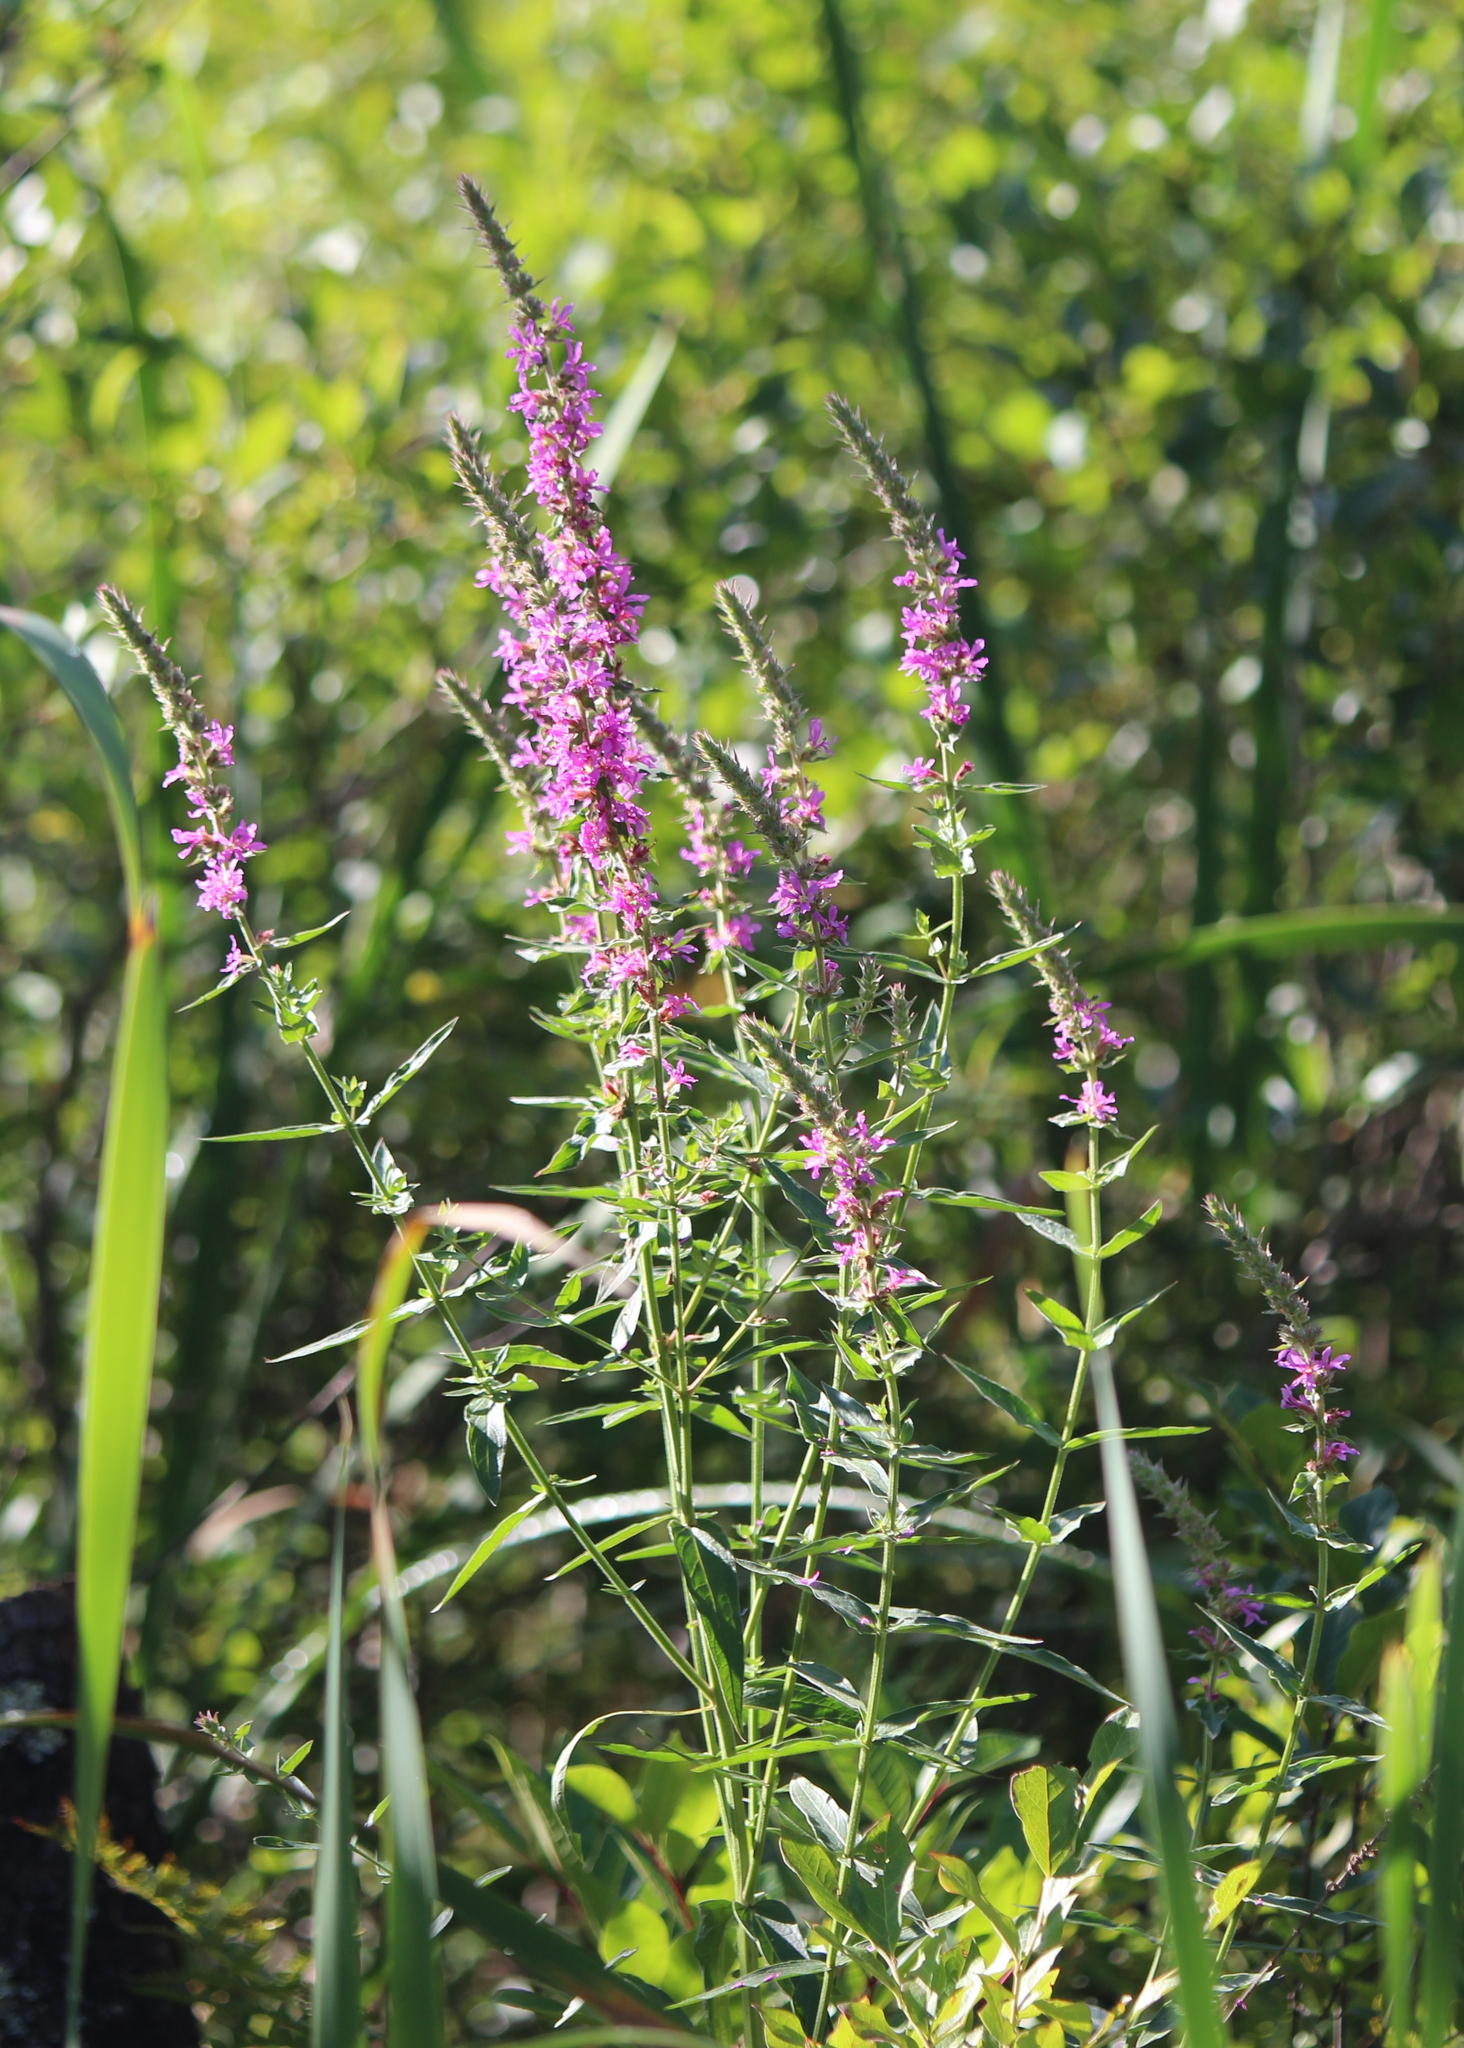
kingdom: Plantae
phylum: Tracheophyta
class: Magnoliopsida
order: Myrtales
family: Lythraceae
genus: Lythrum
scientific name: Lythrum salicaria
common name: Purple loosestrife
